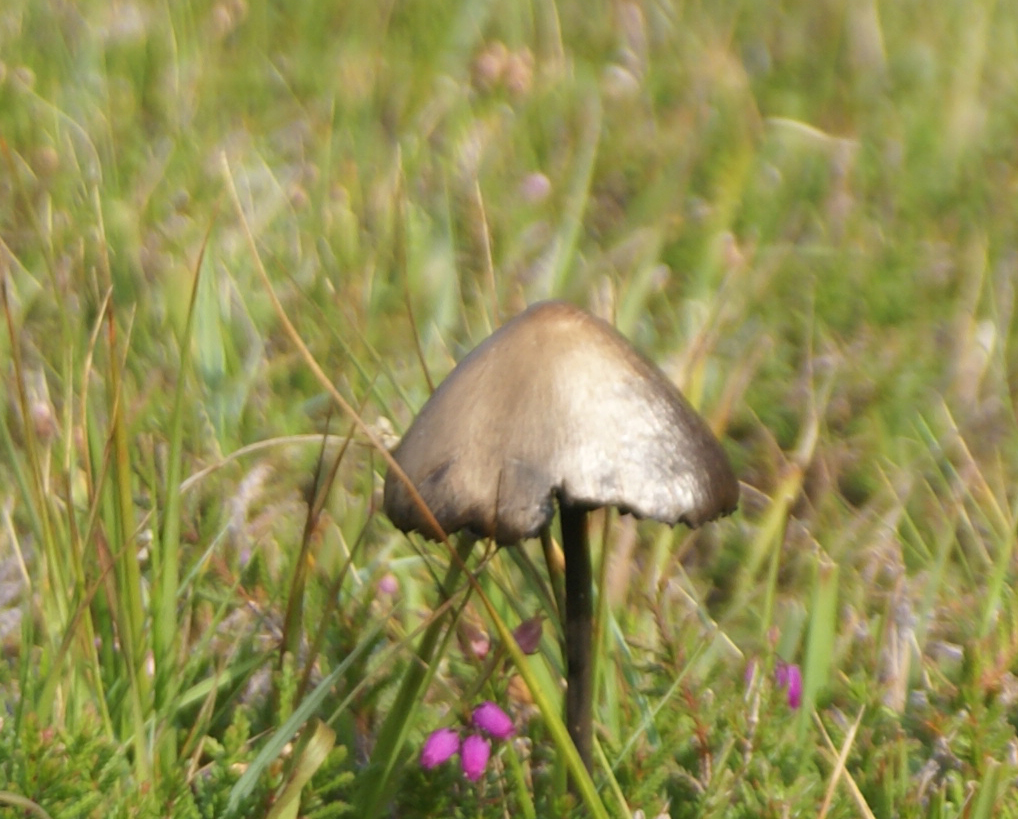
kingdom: Fungi
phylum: Basidiomycota
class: Agaricomycetes
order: Agaricales
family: Bolbitiaceae
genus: Panaeolus
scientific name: Panaeolus papilionaceus
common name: Petticoat mottlegill
